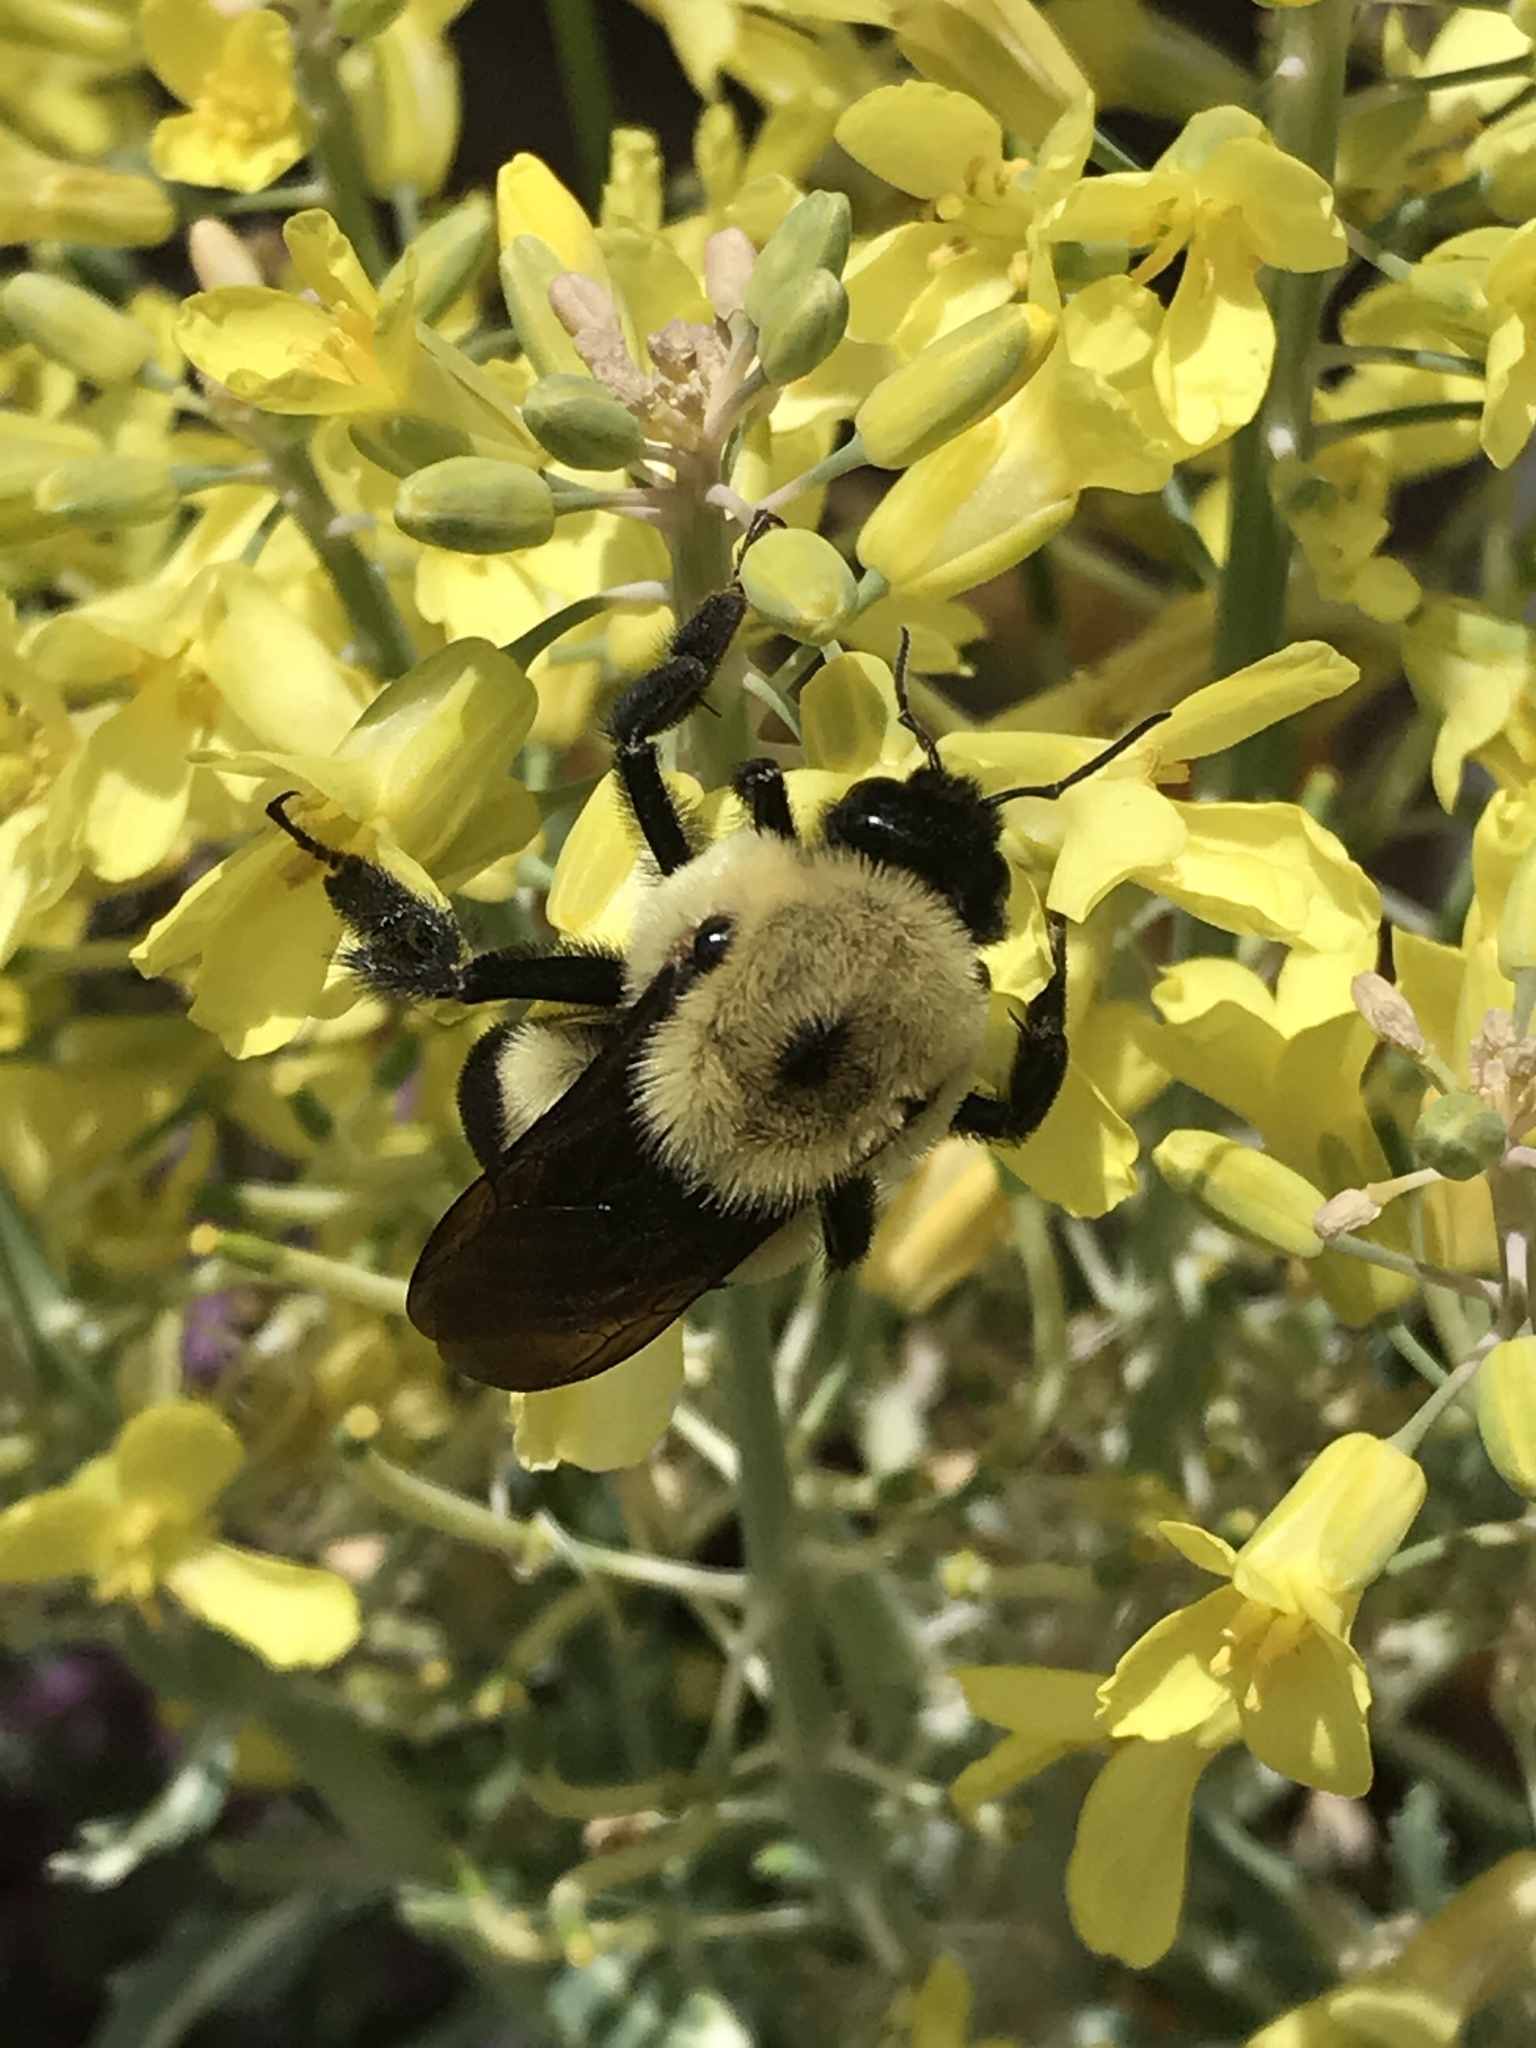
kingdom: Animalia
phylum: Arthropoda
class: Insecta
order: Hymenoptera
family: Apidae
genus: Bombus
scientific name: Bombus griseocollis
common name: Brown-belted bumble bee
